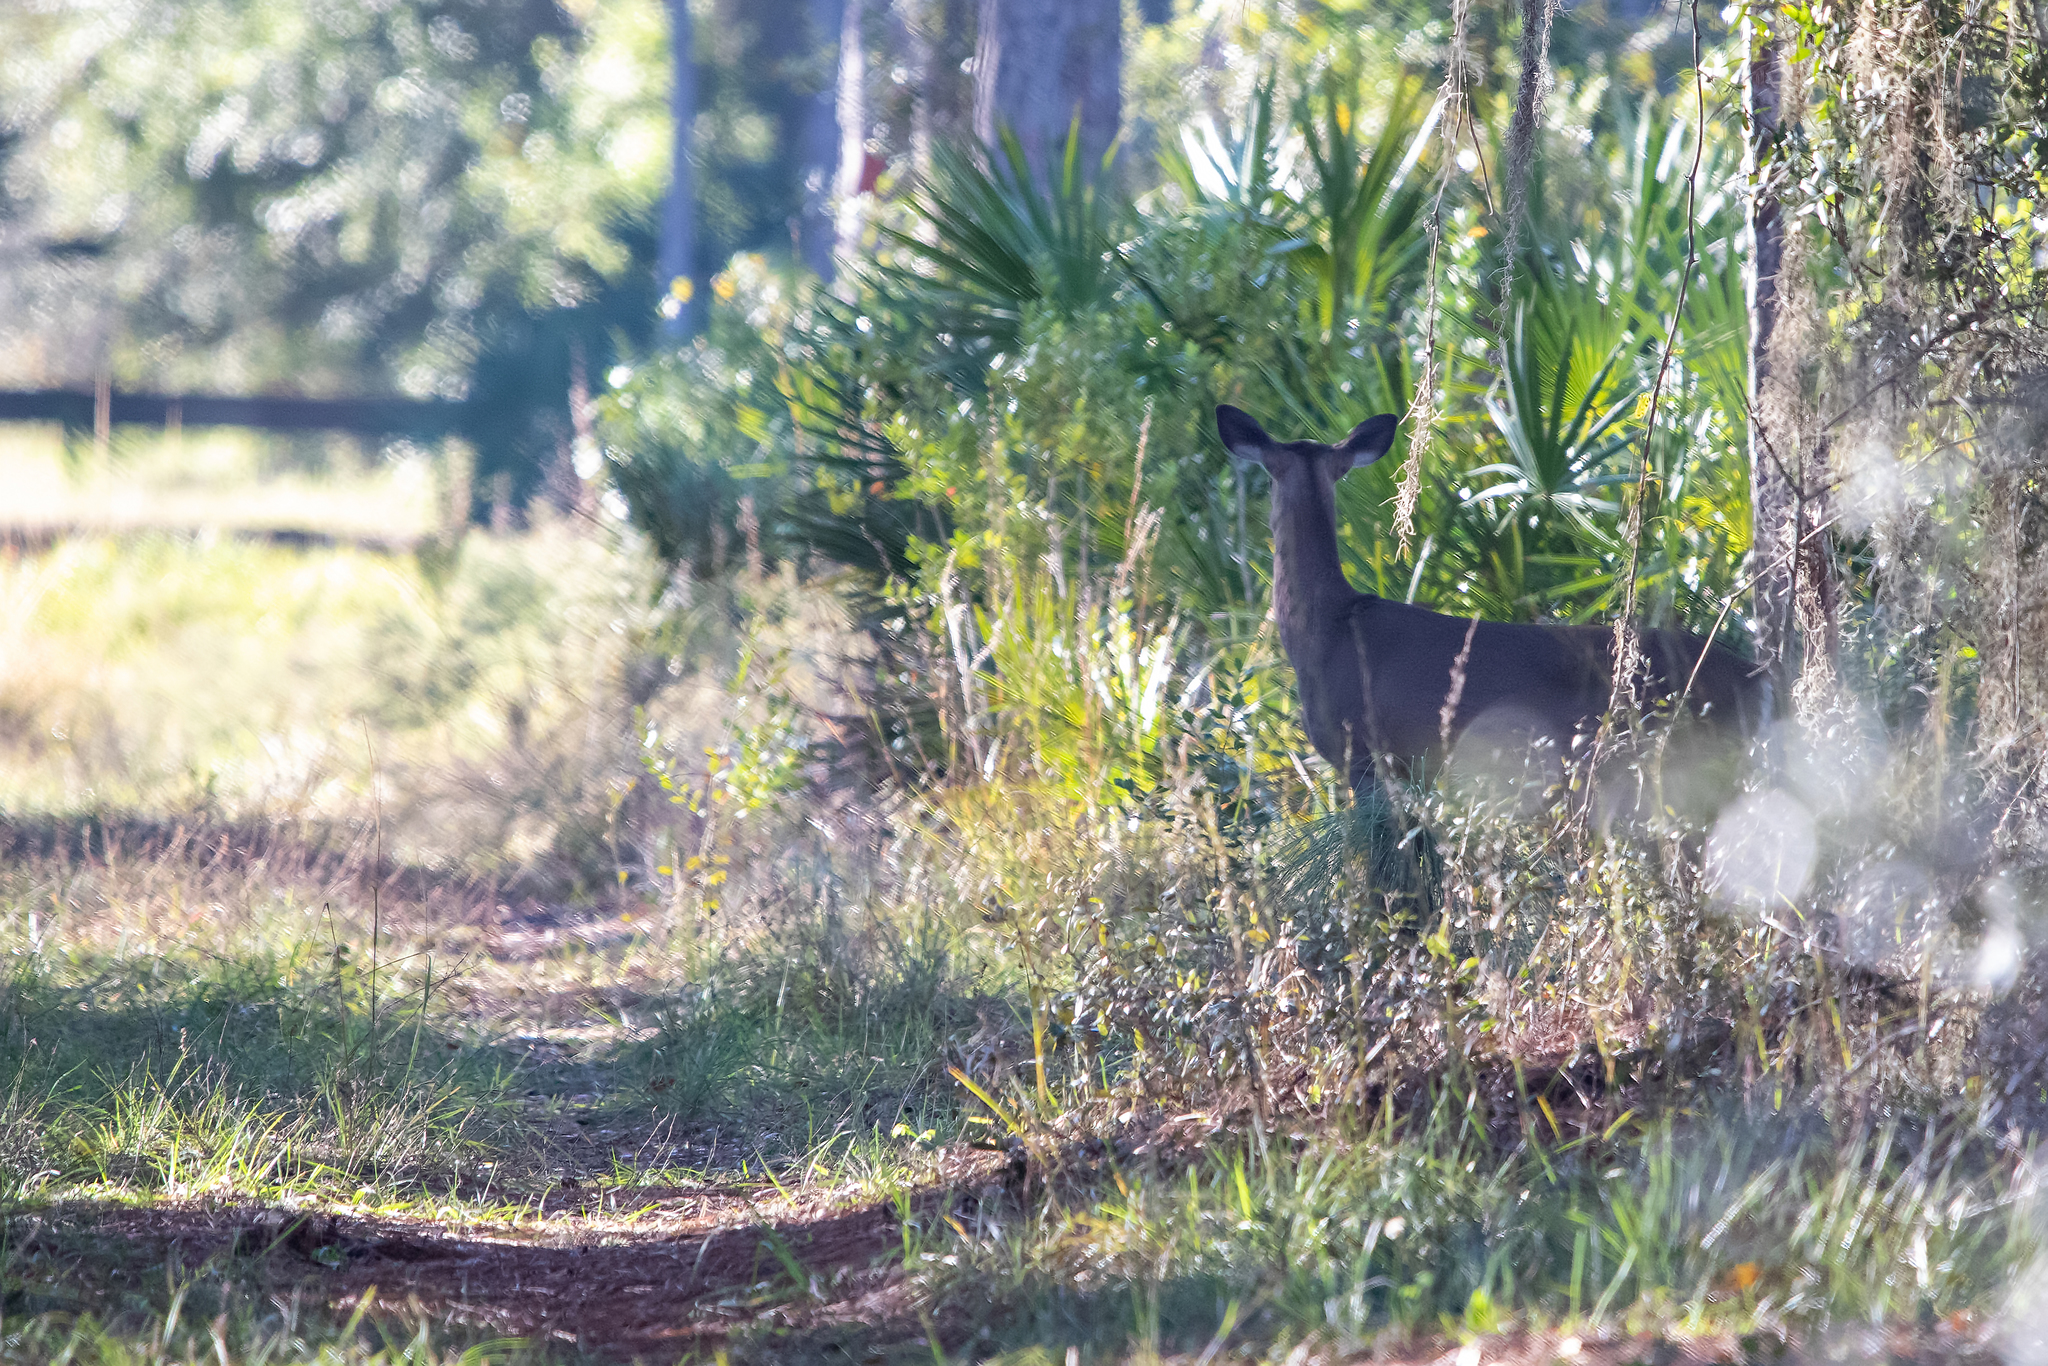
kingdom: Animalia
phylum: Chordata
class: Mammalia
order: Artiodactyla
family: Cervidae
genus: Odocoileus
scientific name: Odocoileus virginianus
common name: White-tailed deer
